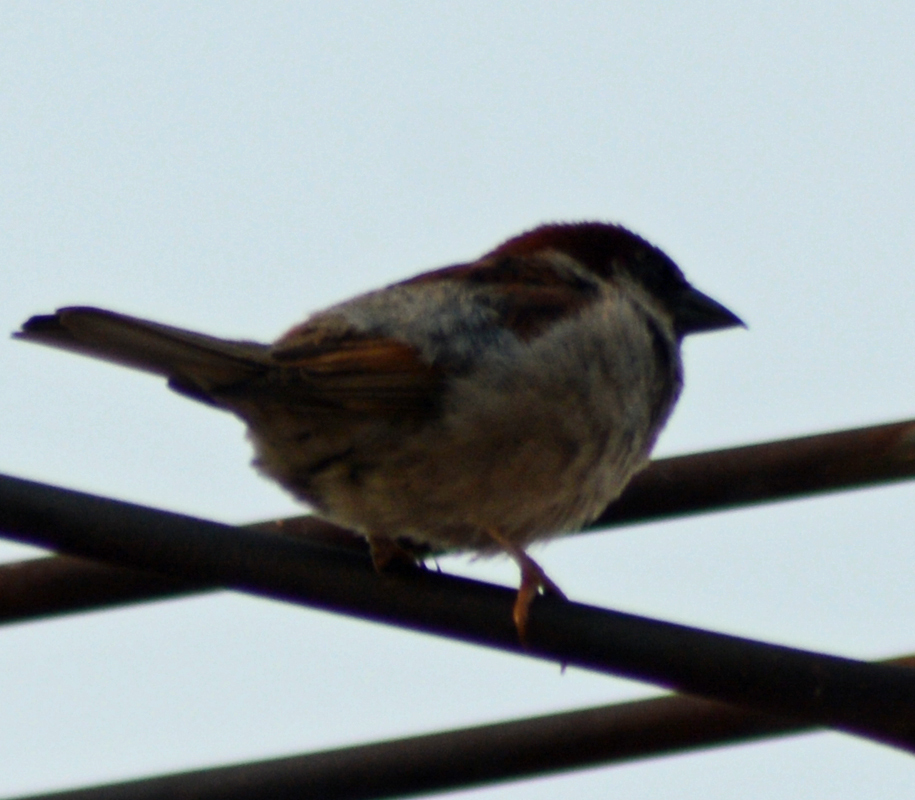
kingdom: Animalia
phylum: Chordata
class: Aves
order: Passeriformes
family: Passeridae
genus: Passer
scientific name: Passer domesticus
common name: House sparrow
